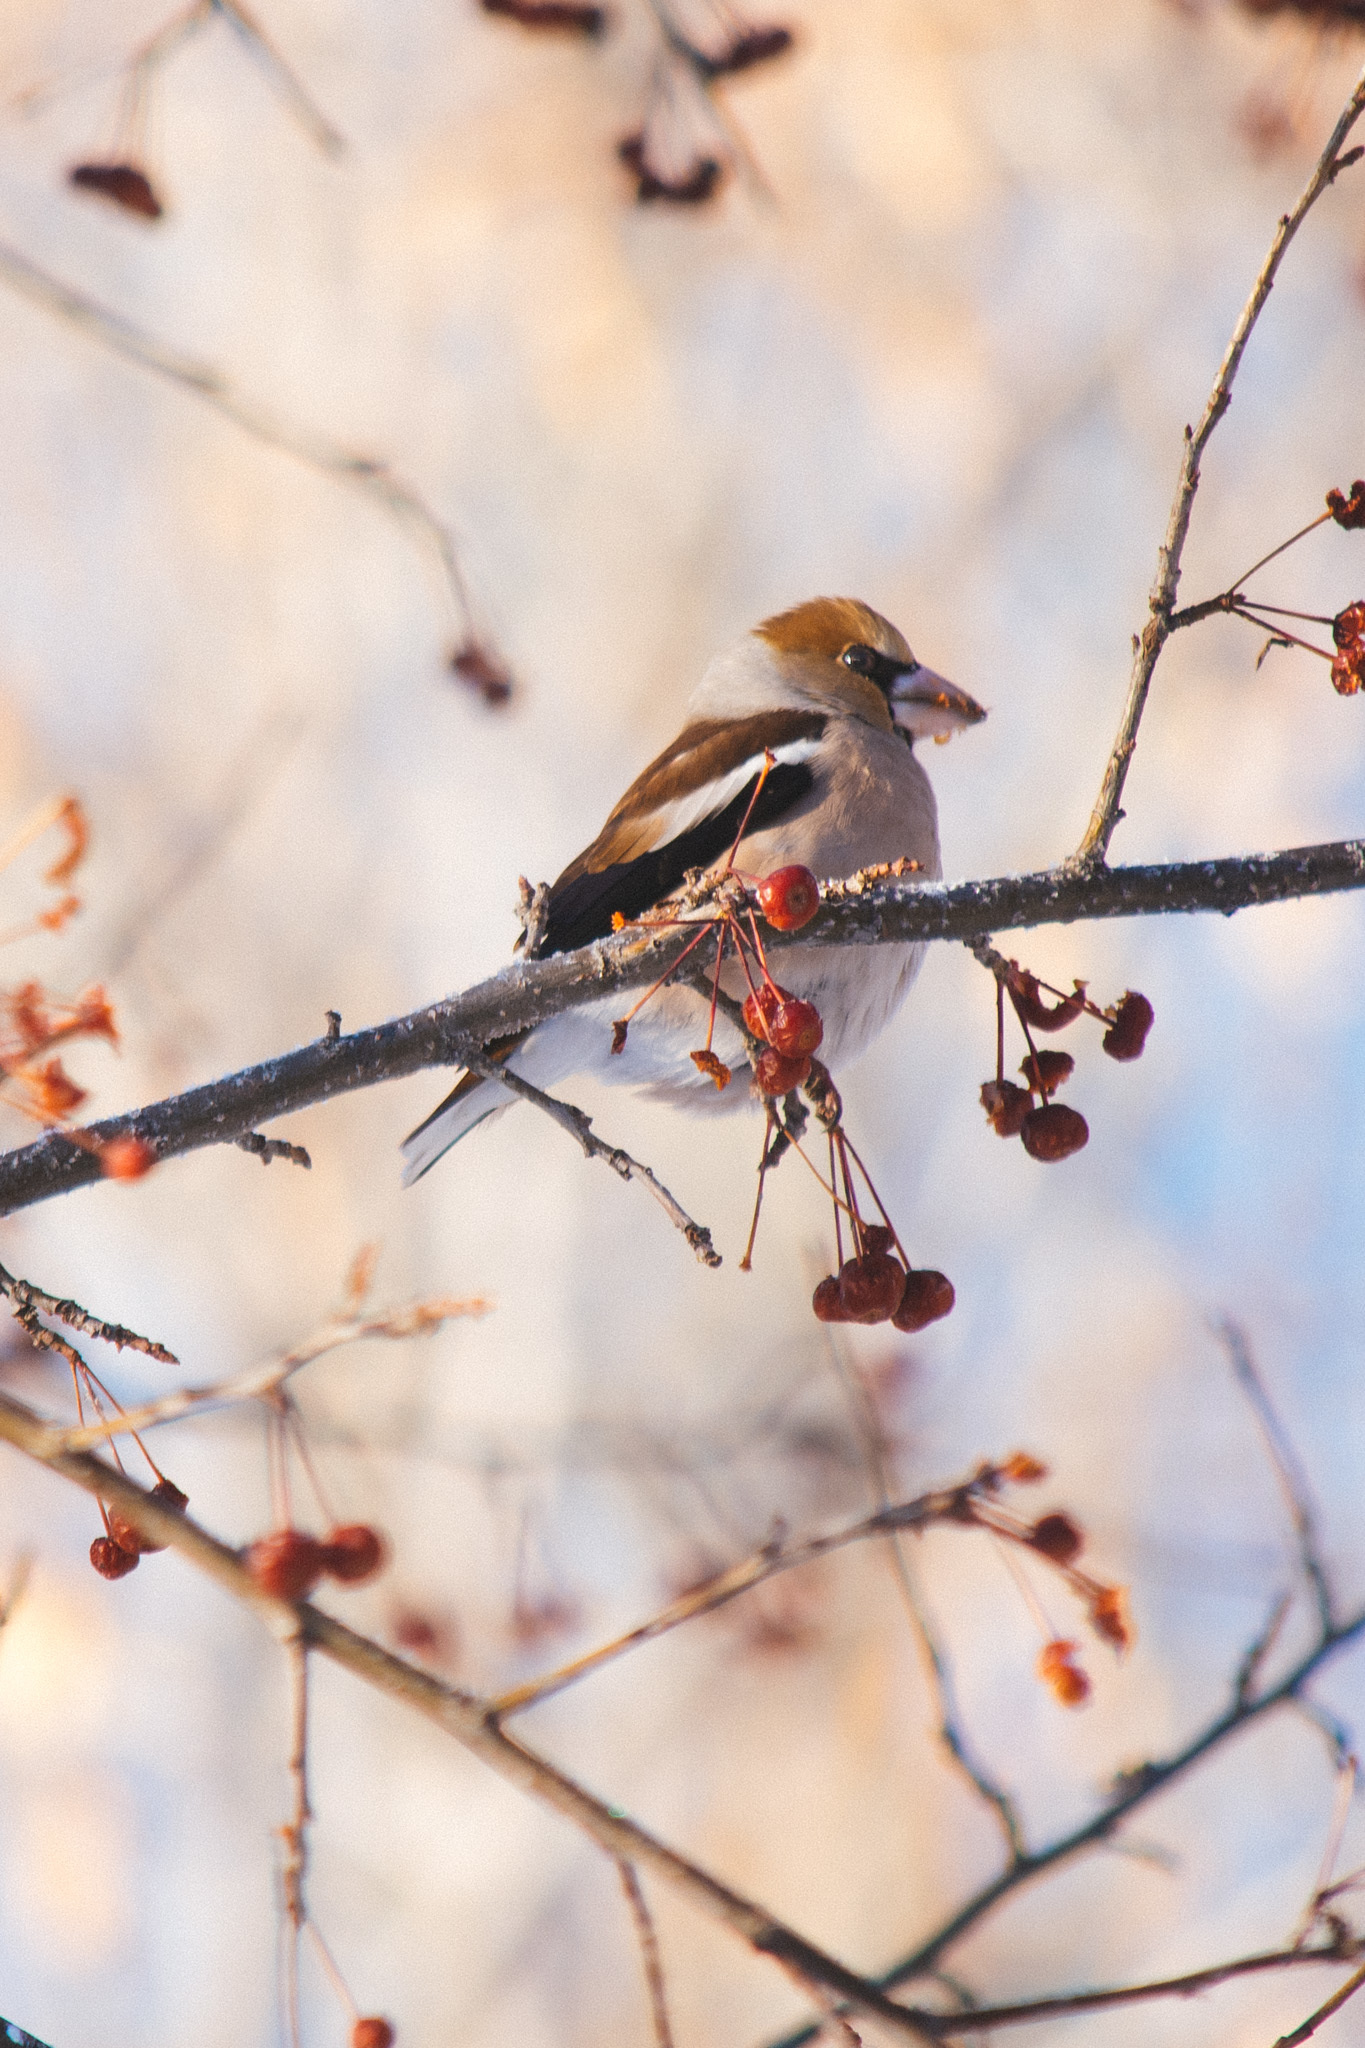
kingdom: Animalia
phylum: Chordata
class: Aves
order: Passeriformes
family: Fringillidae
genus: Coccothraustes
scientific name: Coccothraustes coccothraustes
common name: Hawfinch
